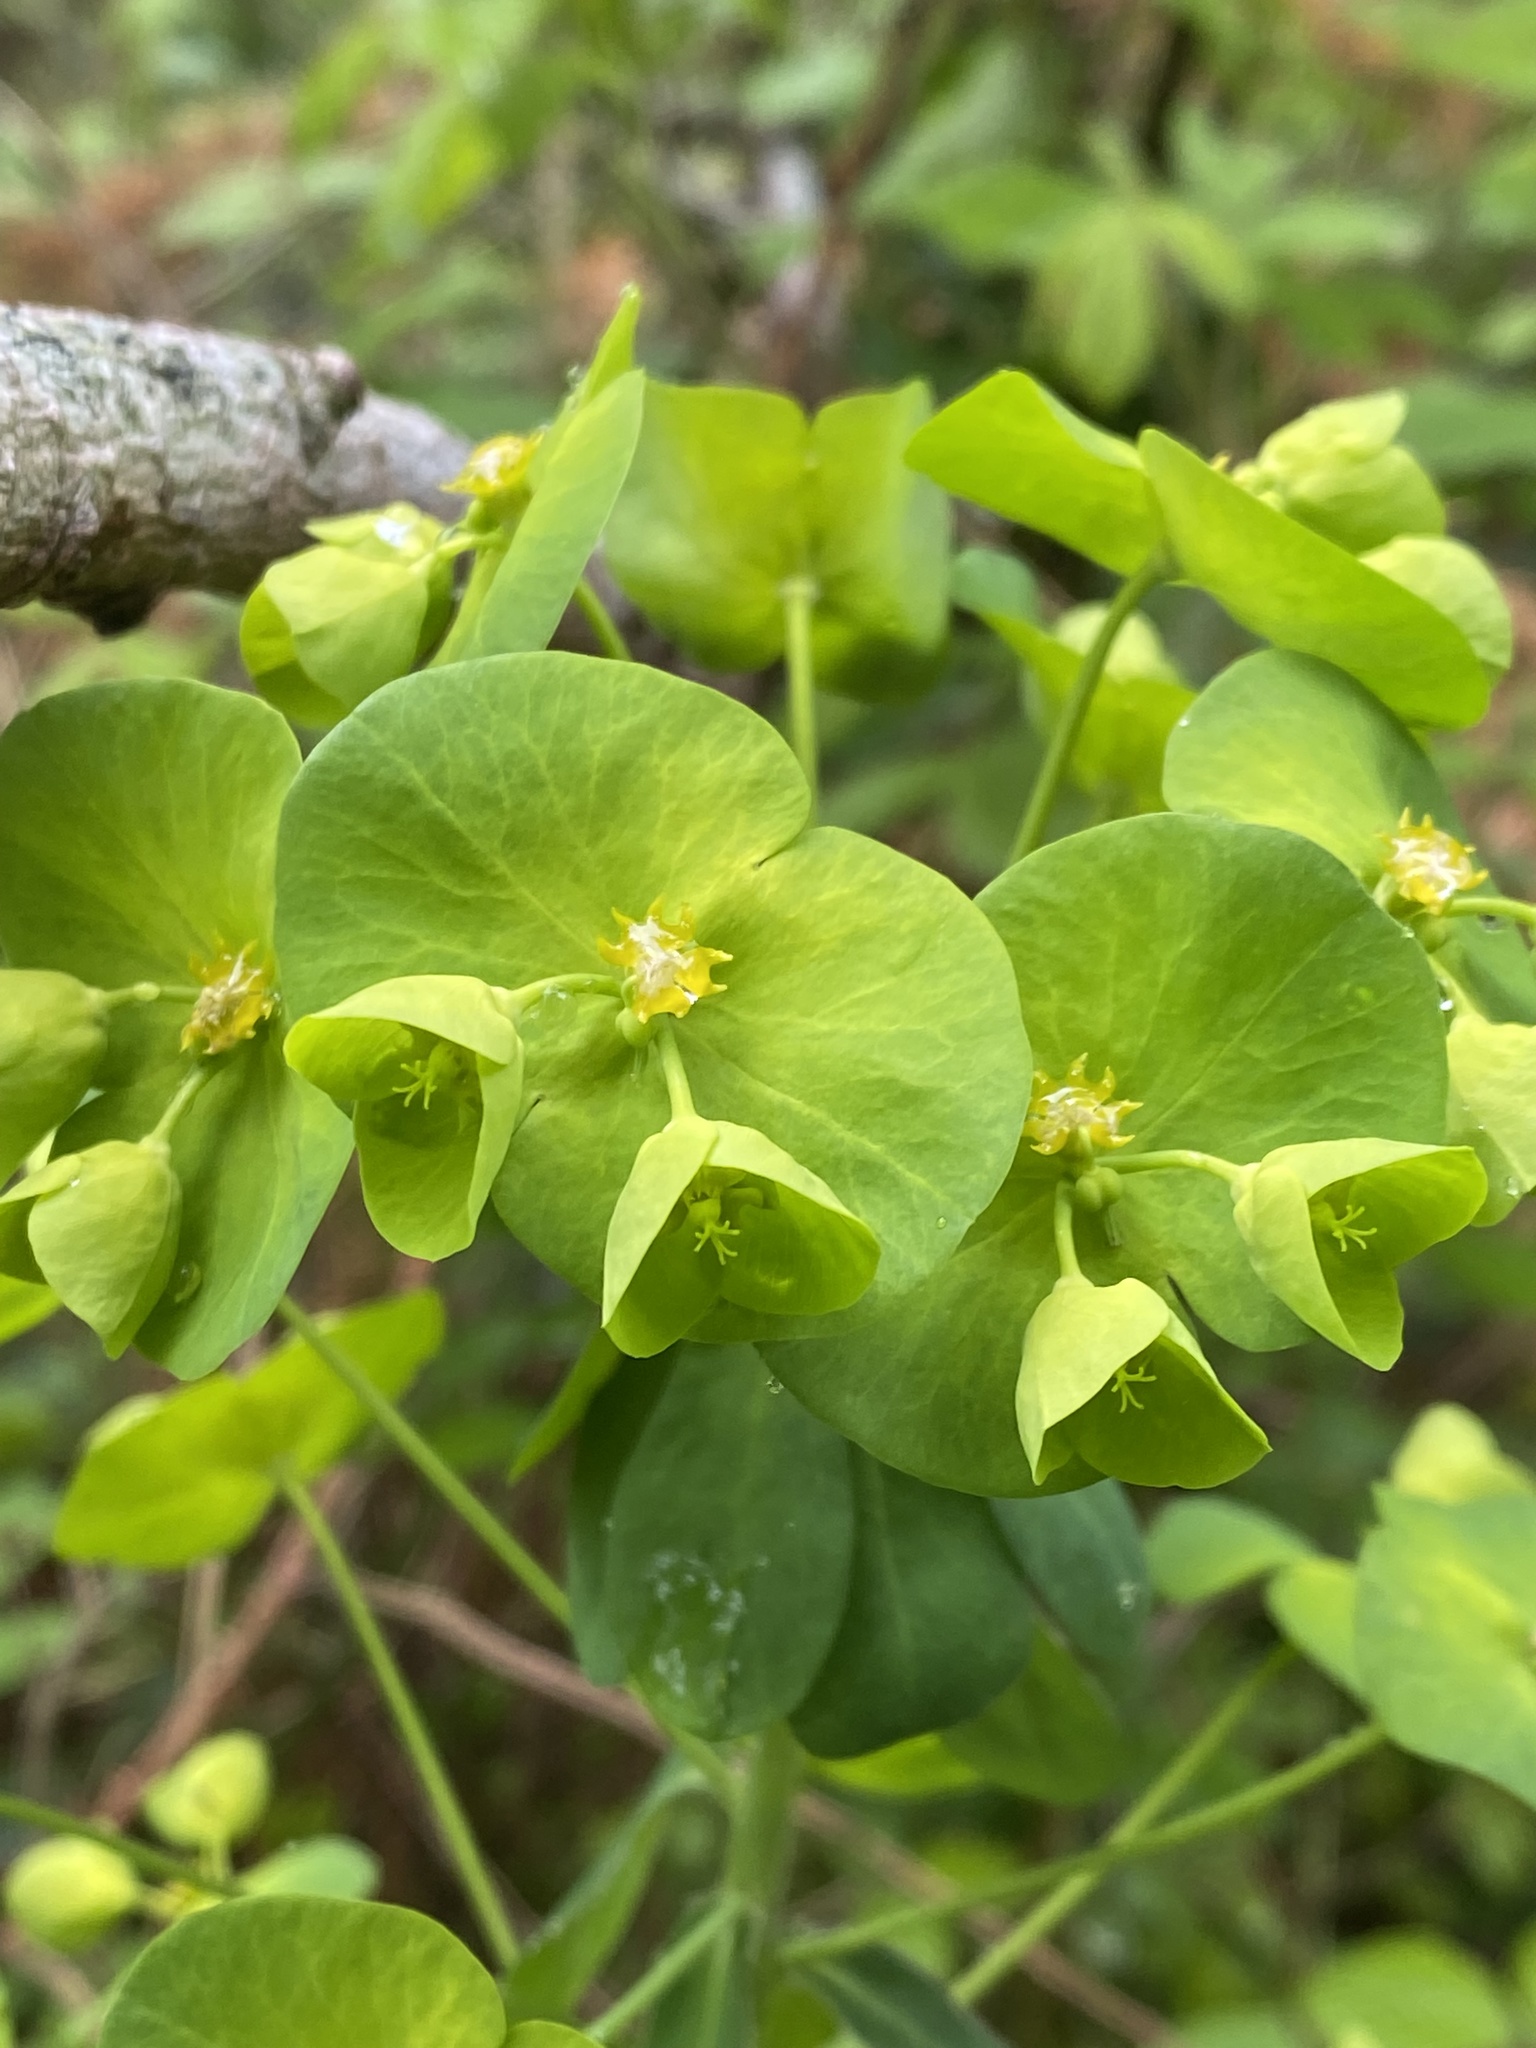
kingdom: Plantae
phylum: Tracheophyta
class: Magnoliopsida
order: Malpighiales
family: Euphorbiaceae
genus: Euphorbia
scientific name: Euphorbia amygdaloides
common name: Wood spurge
